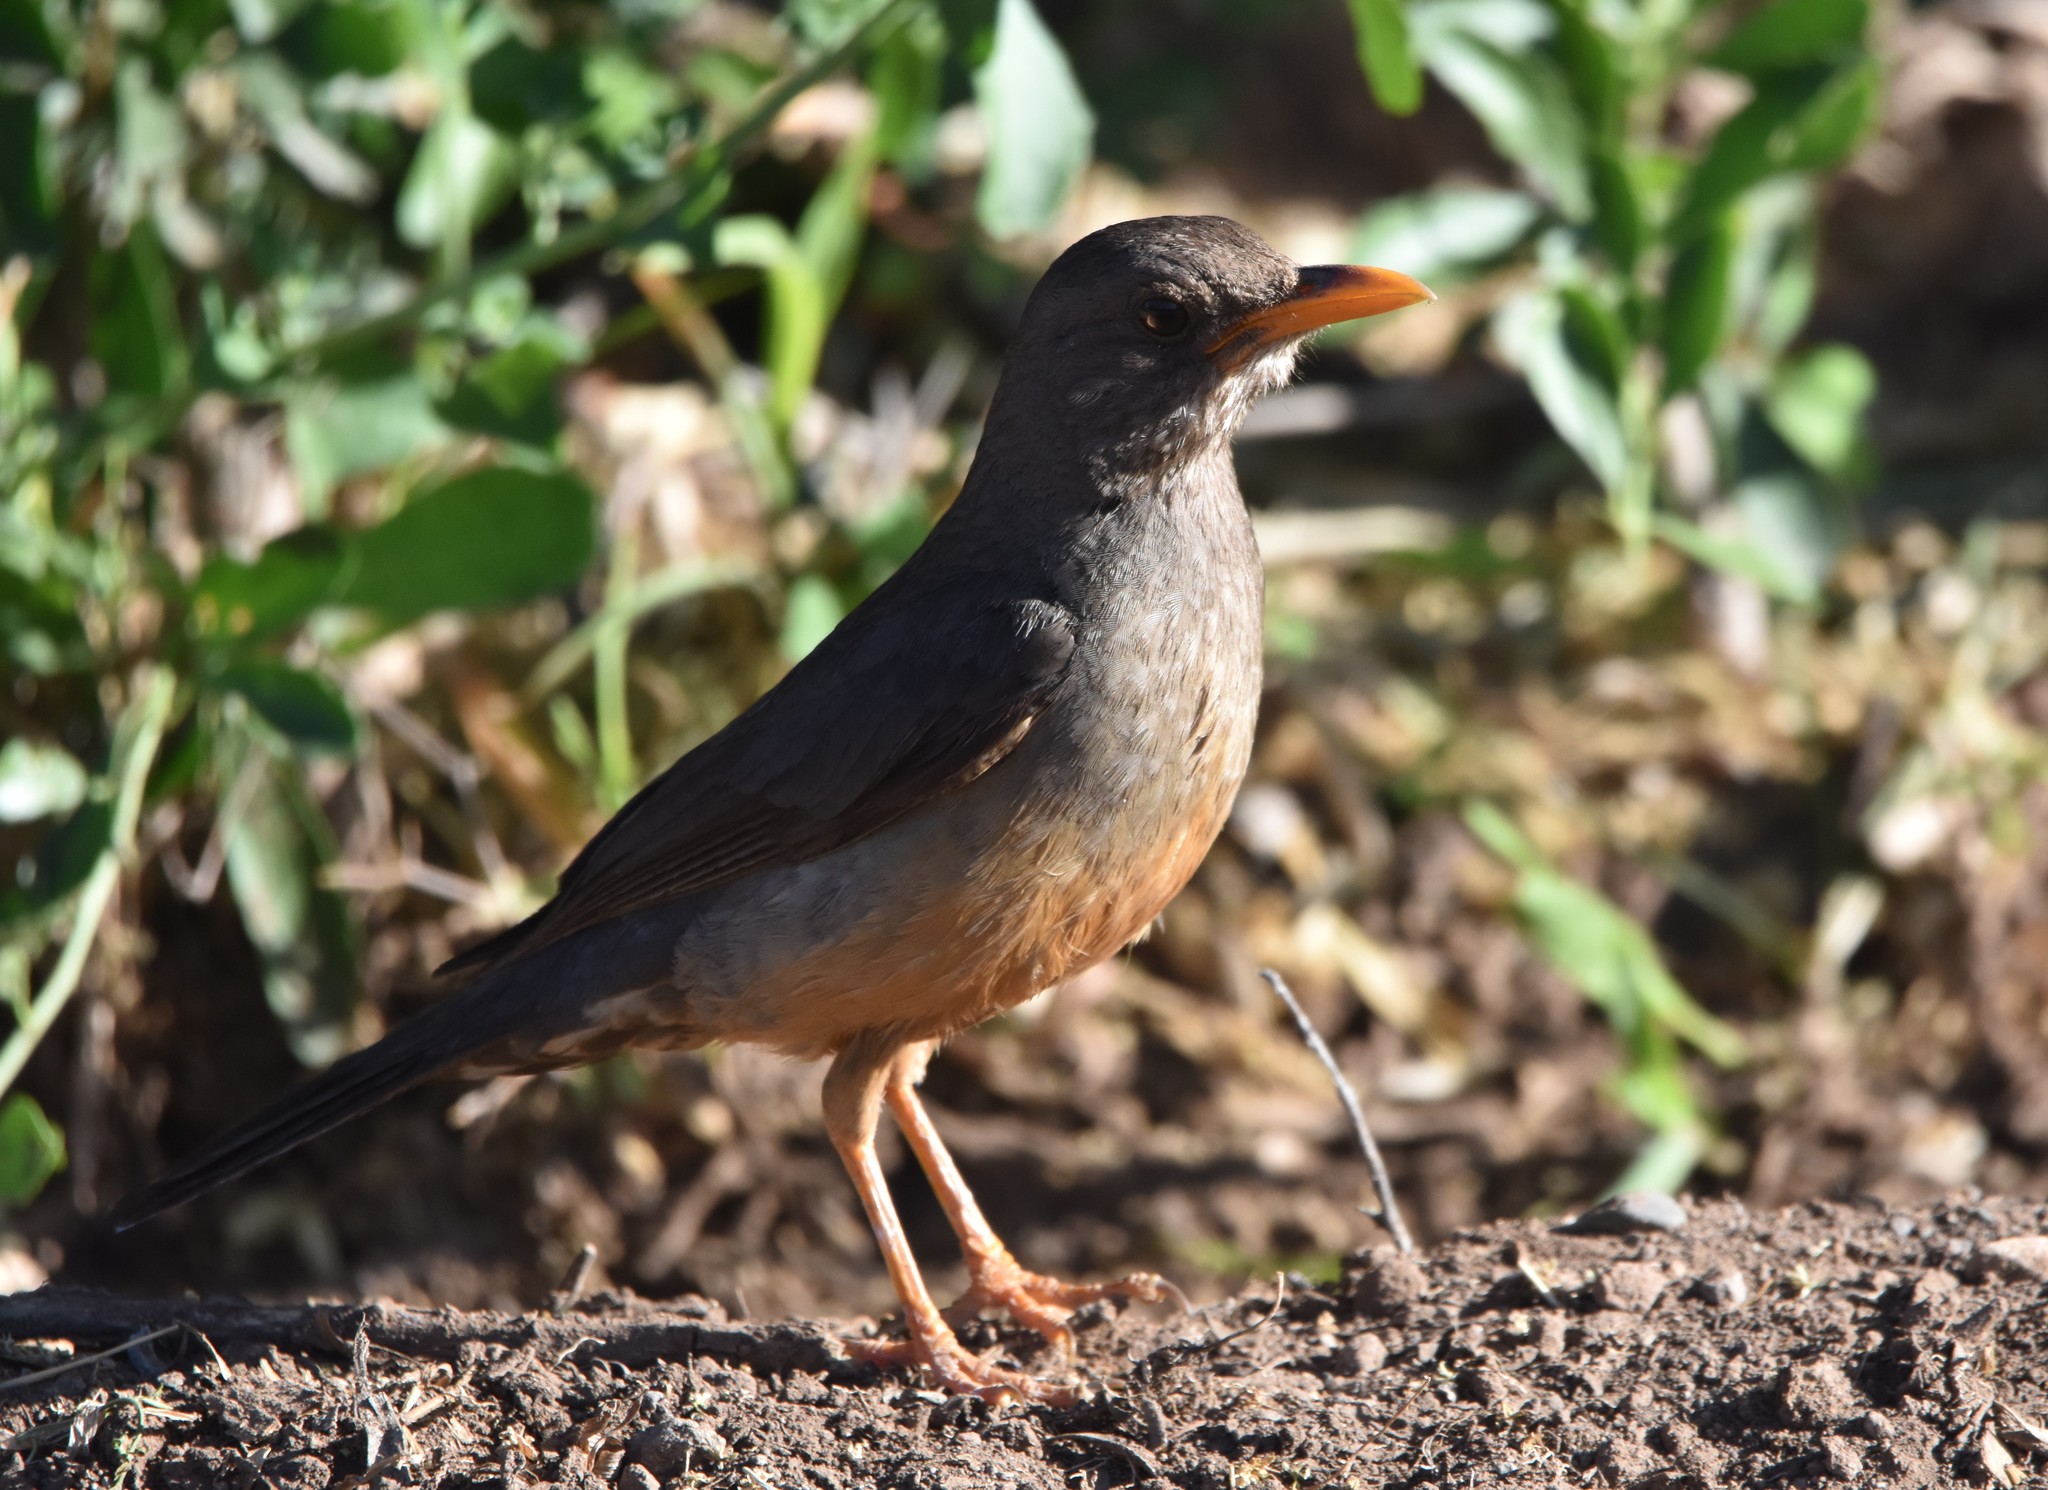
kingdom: Animalia
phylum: Chordata
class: Aves
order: Passeriformes
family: Turdidae
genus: Turdus
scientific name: Turdus
